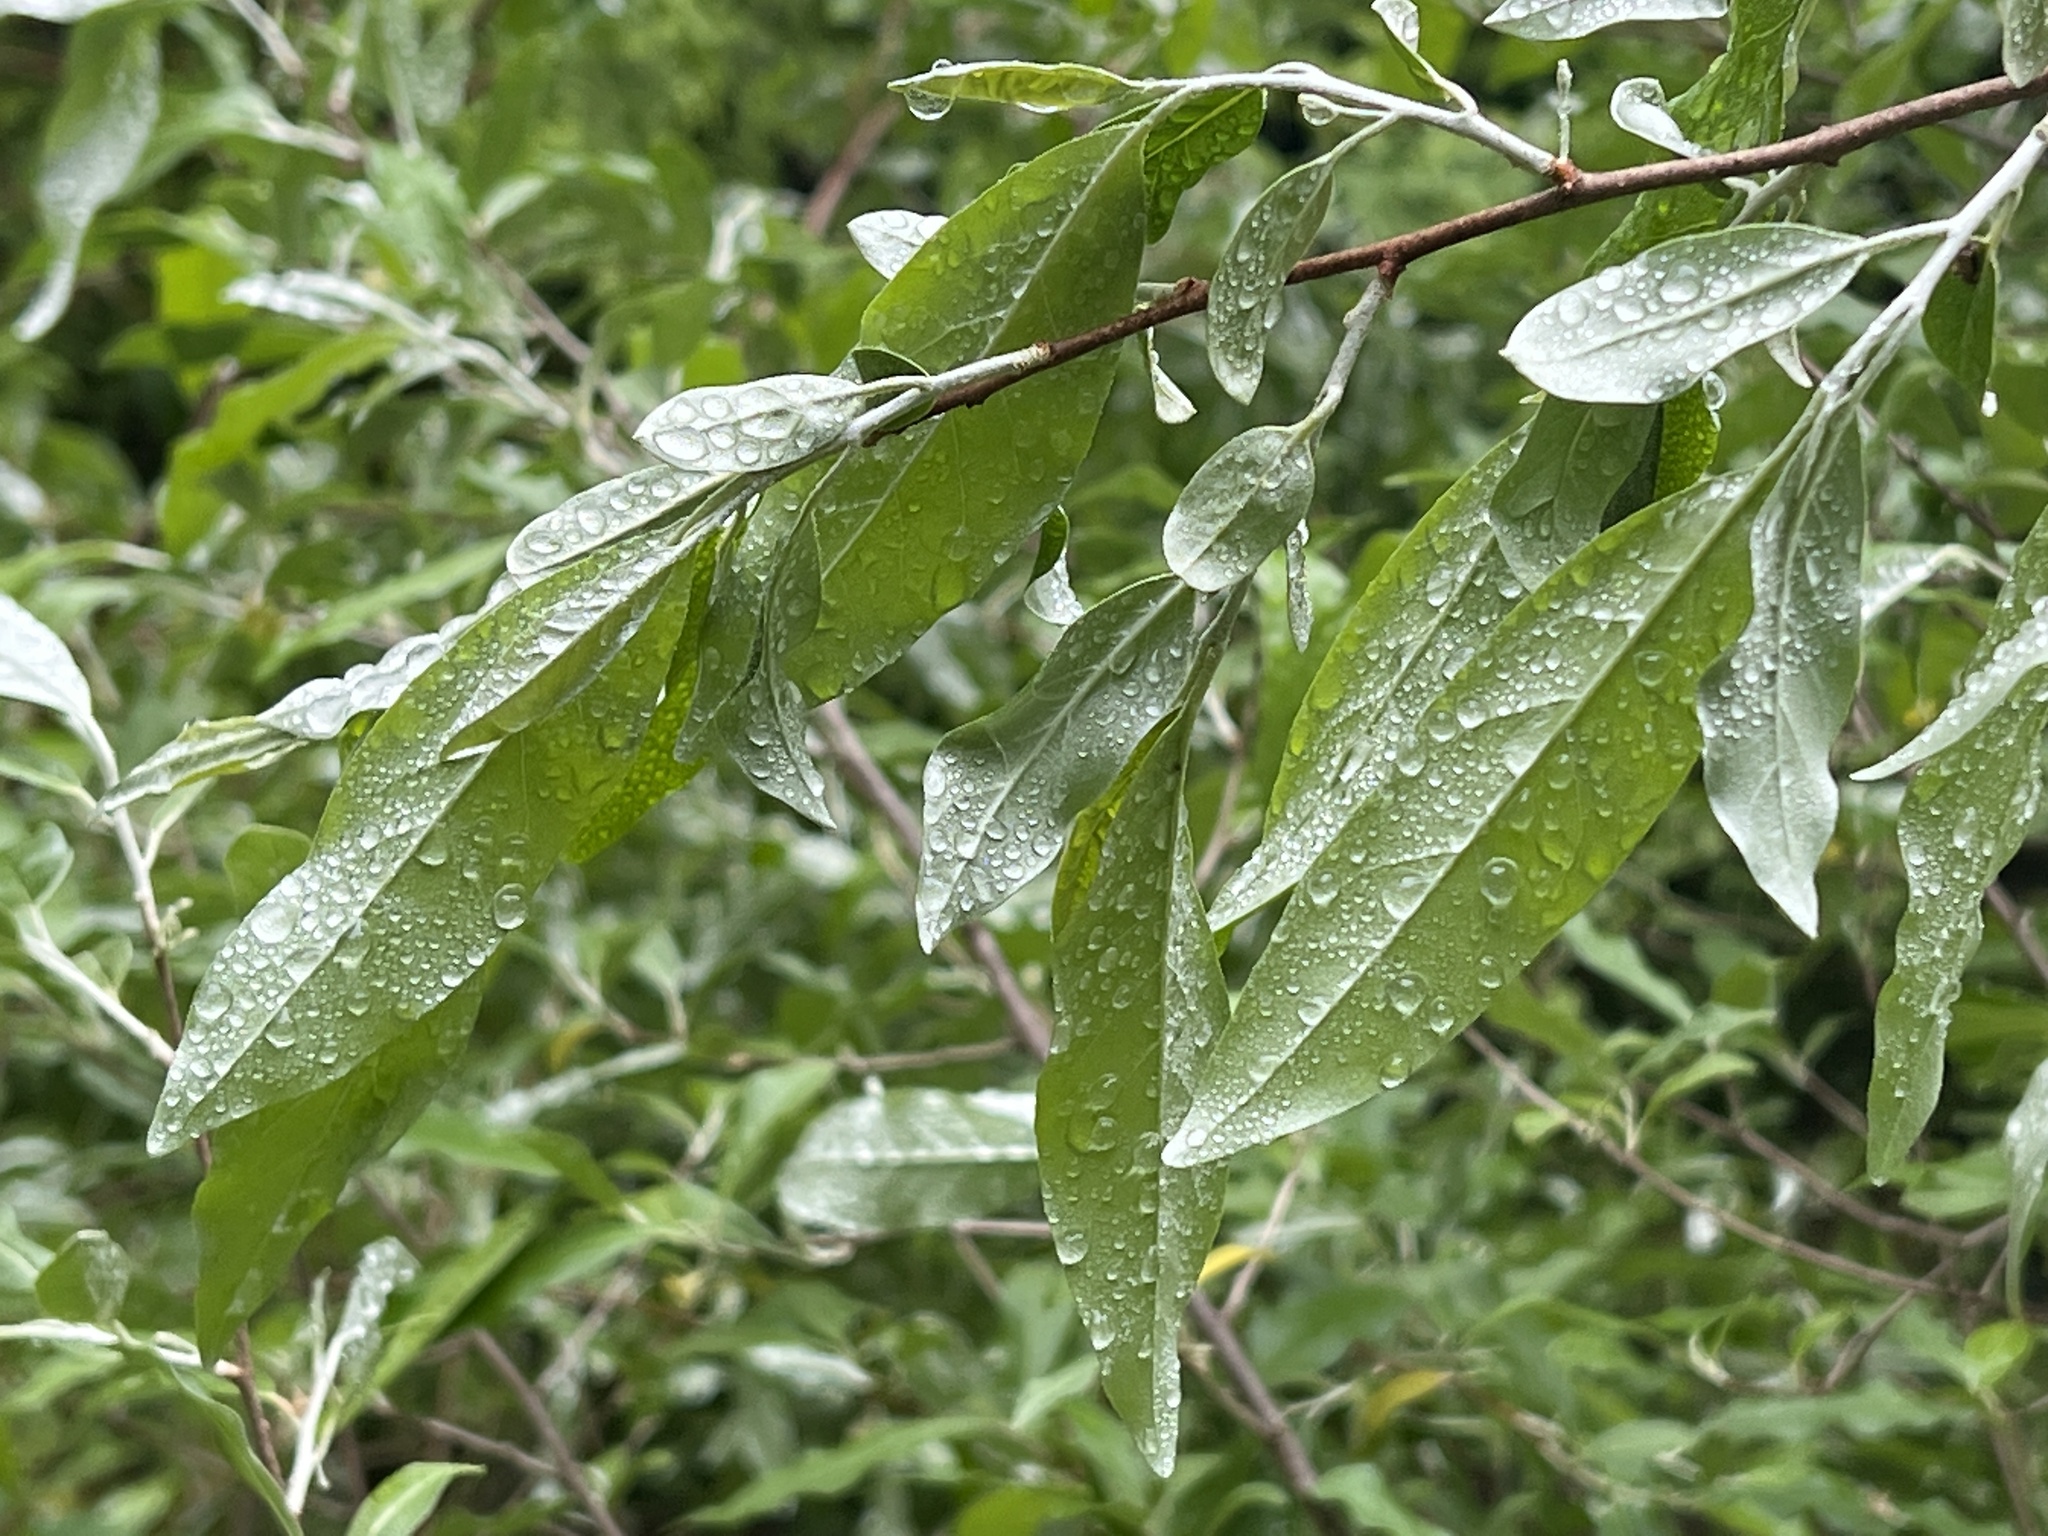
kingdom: Plantae
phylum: Tracheophyta
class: Magnoliopsida
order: Rosales
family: Elaeagnaceae
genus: Elaeagnus
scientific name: Elaeagnus umbellata
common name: Autumn olive
